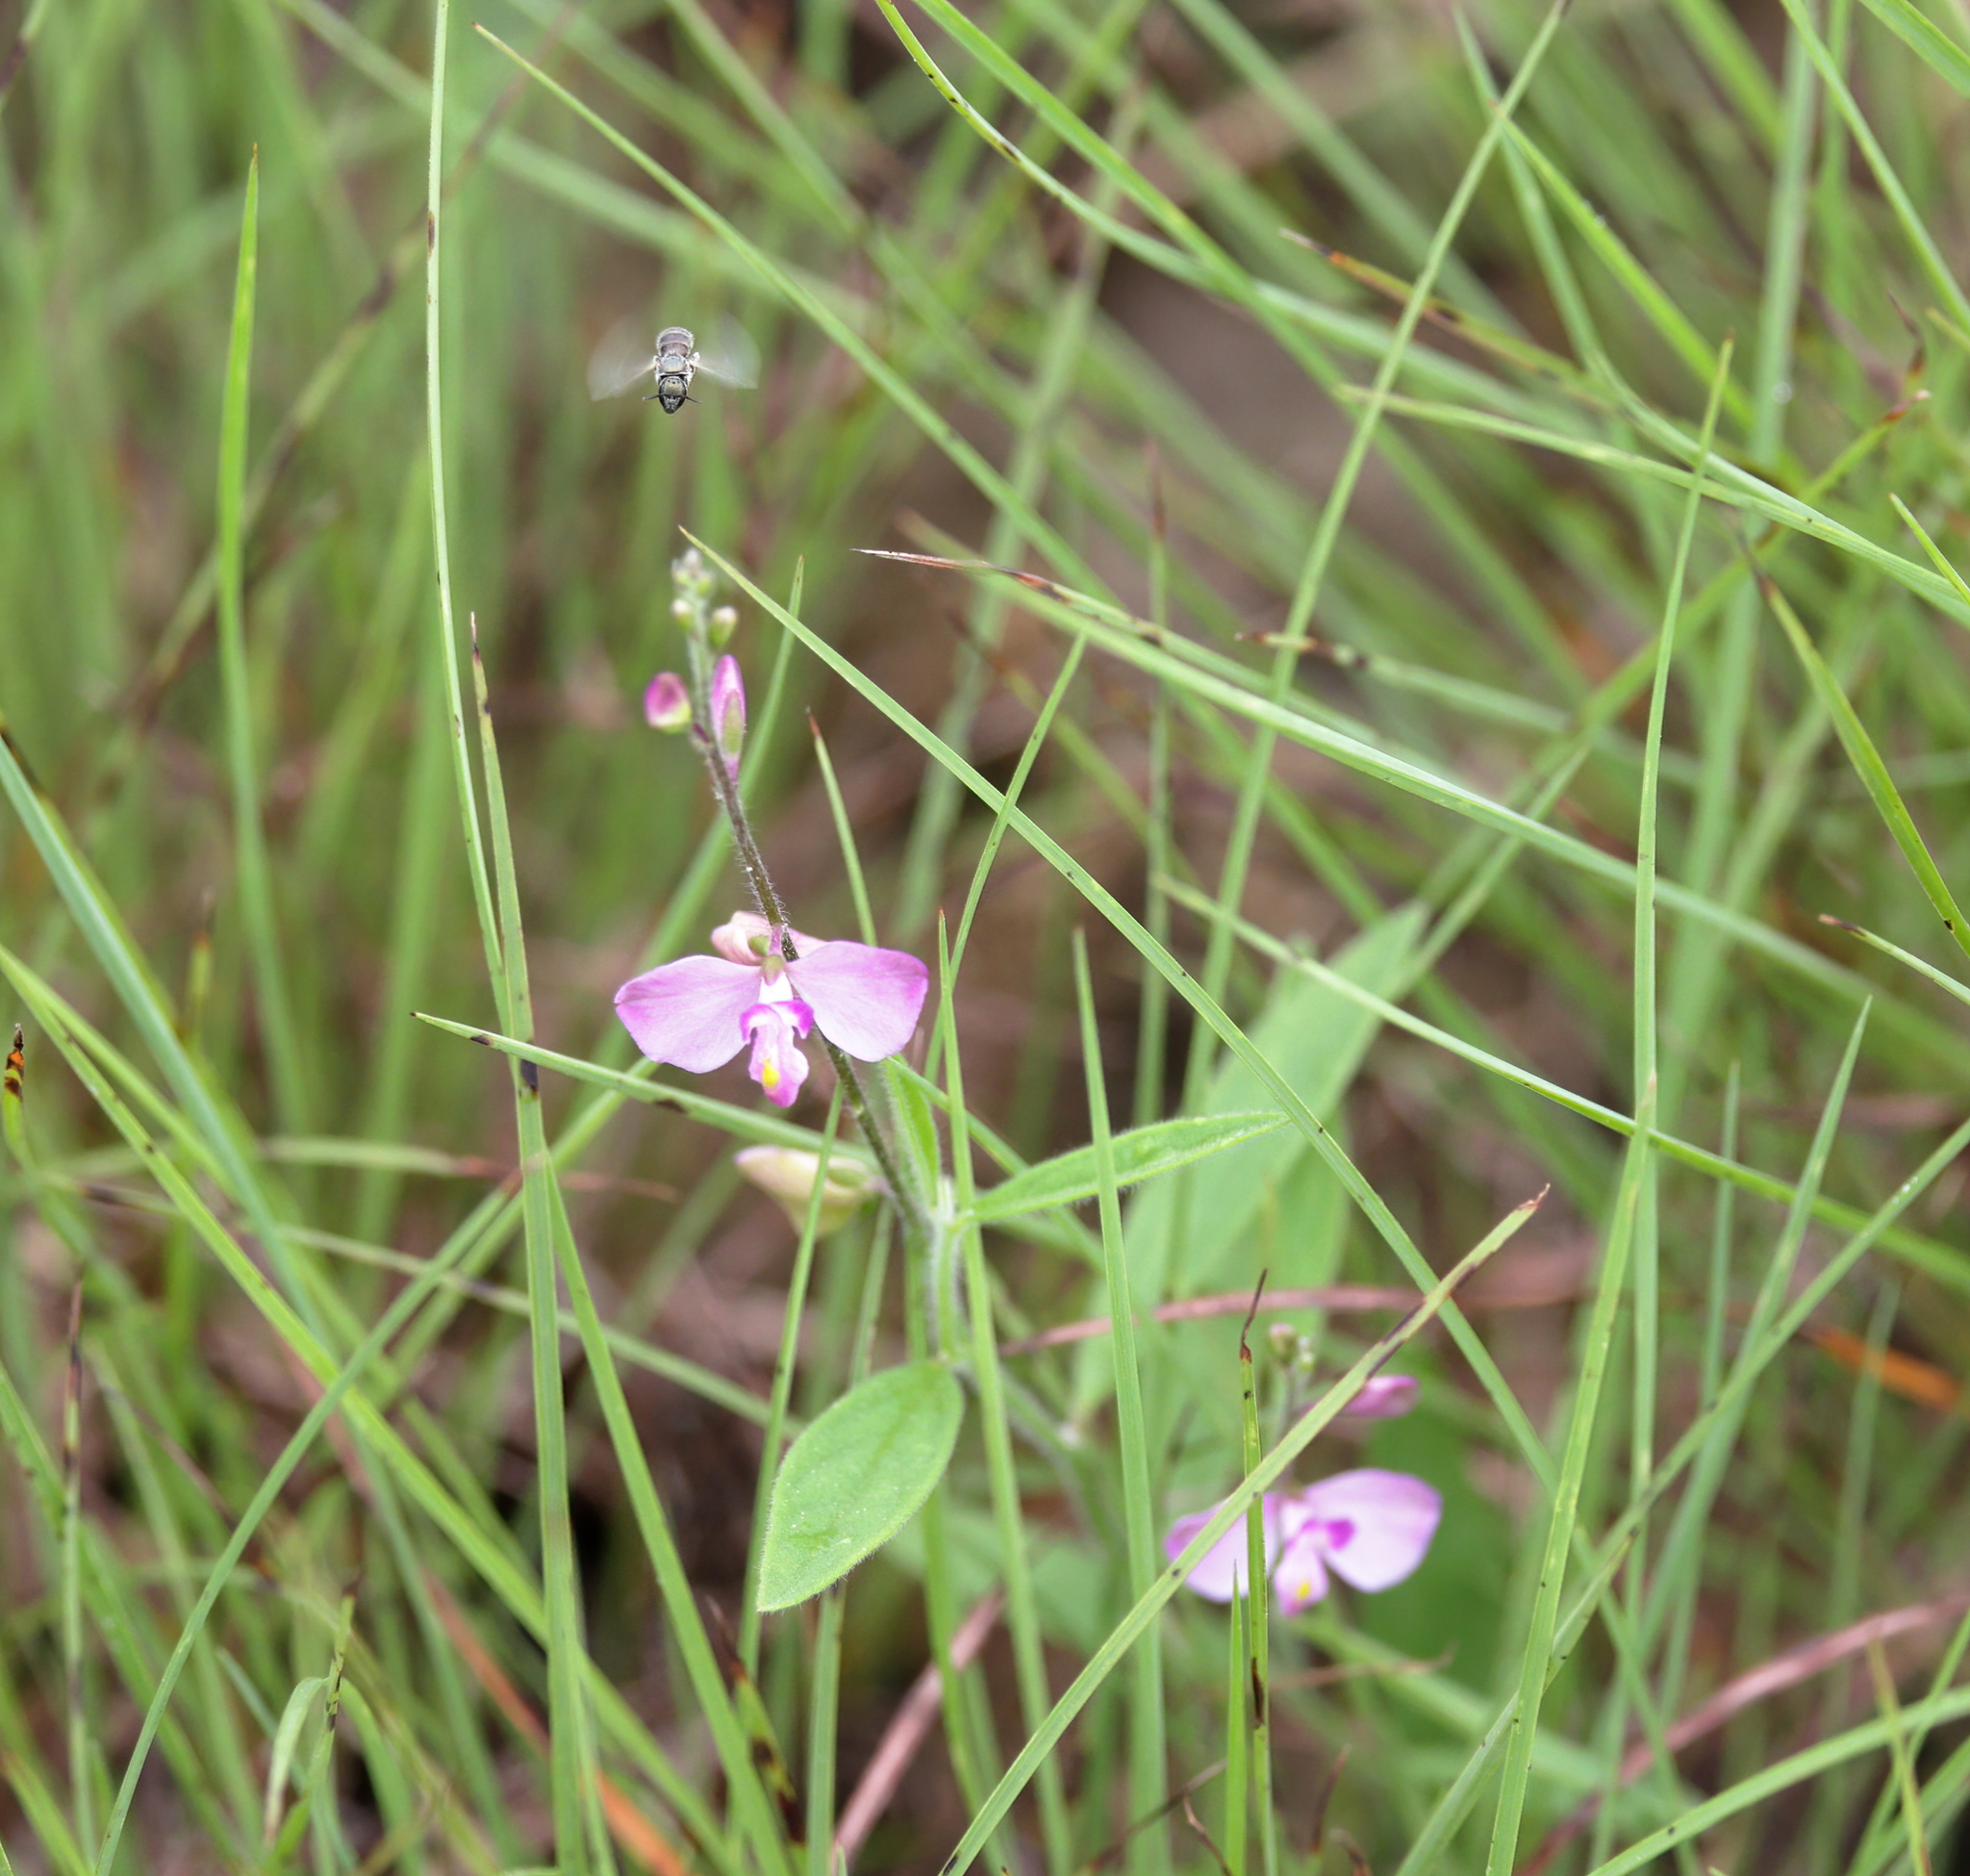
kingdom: Plantae
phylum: Tracheophyta
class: Magnoliopsida
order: Fabales
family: Polygalaceae
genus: Asemeia
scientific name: Asemeia grandiflora
